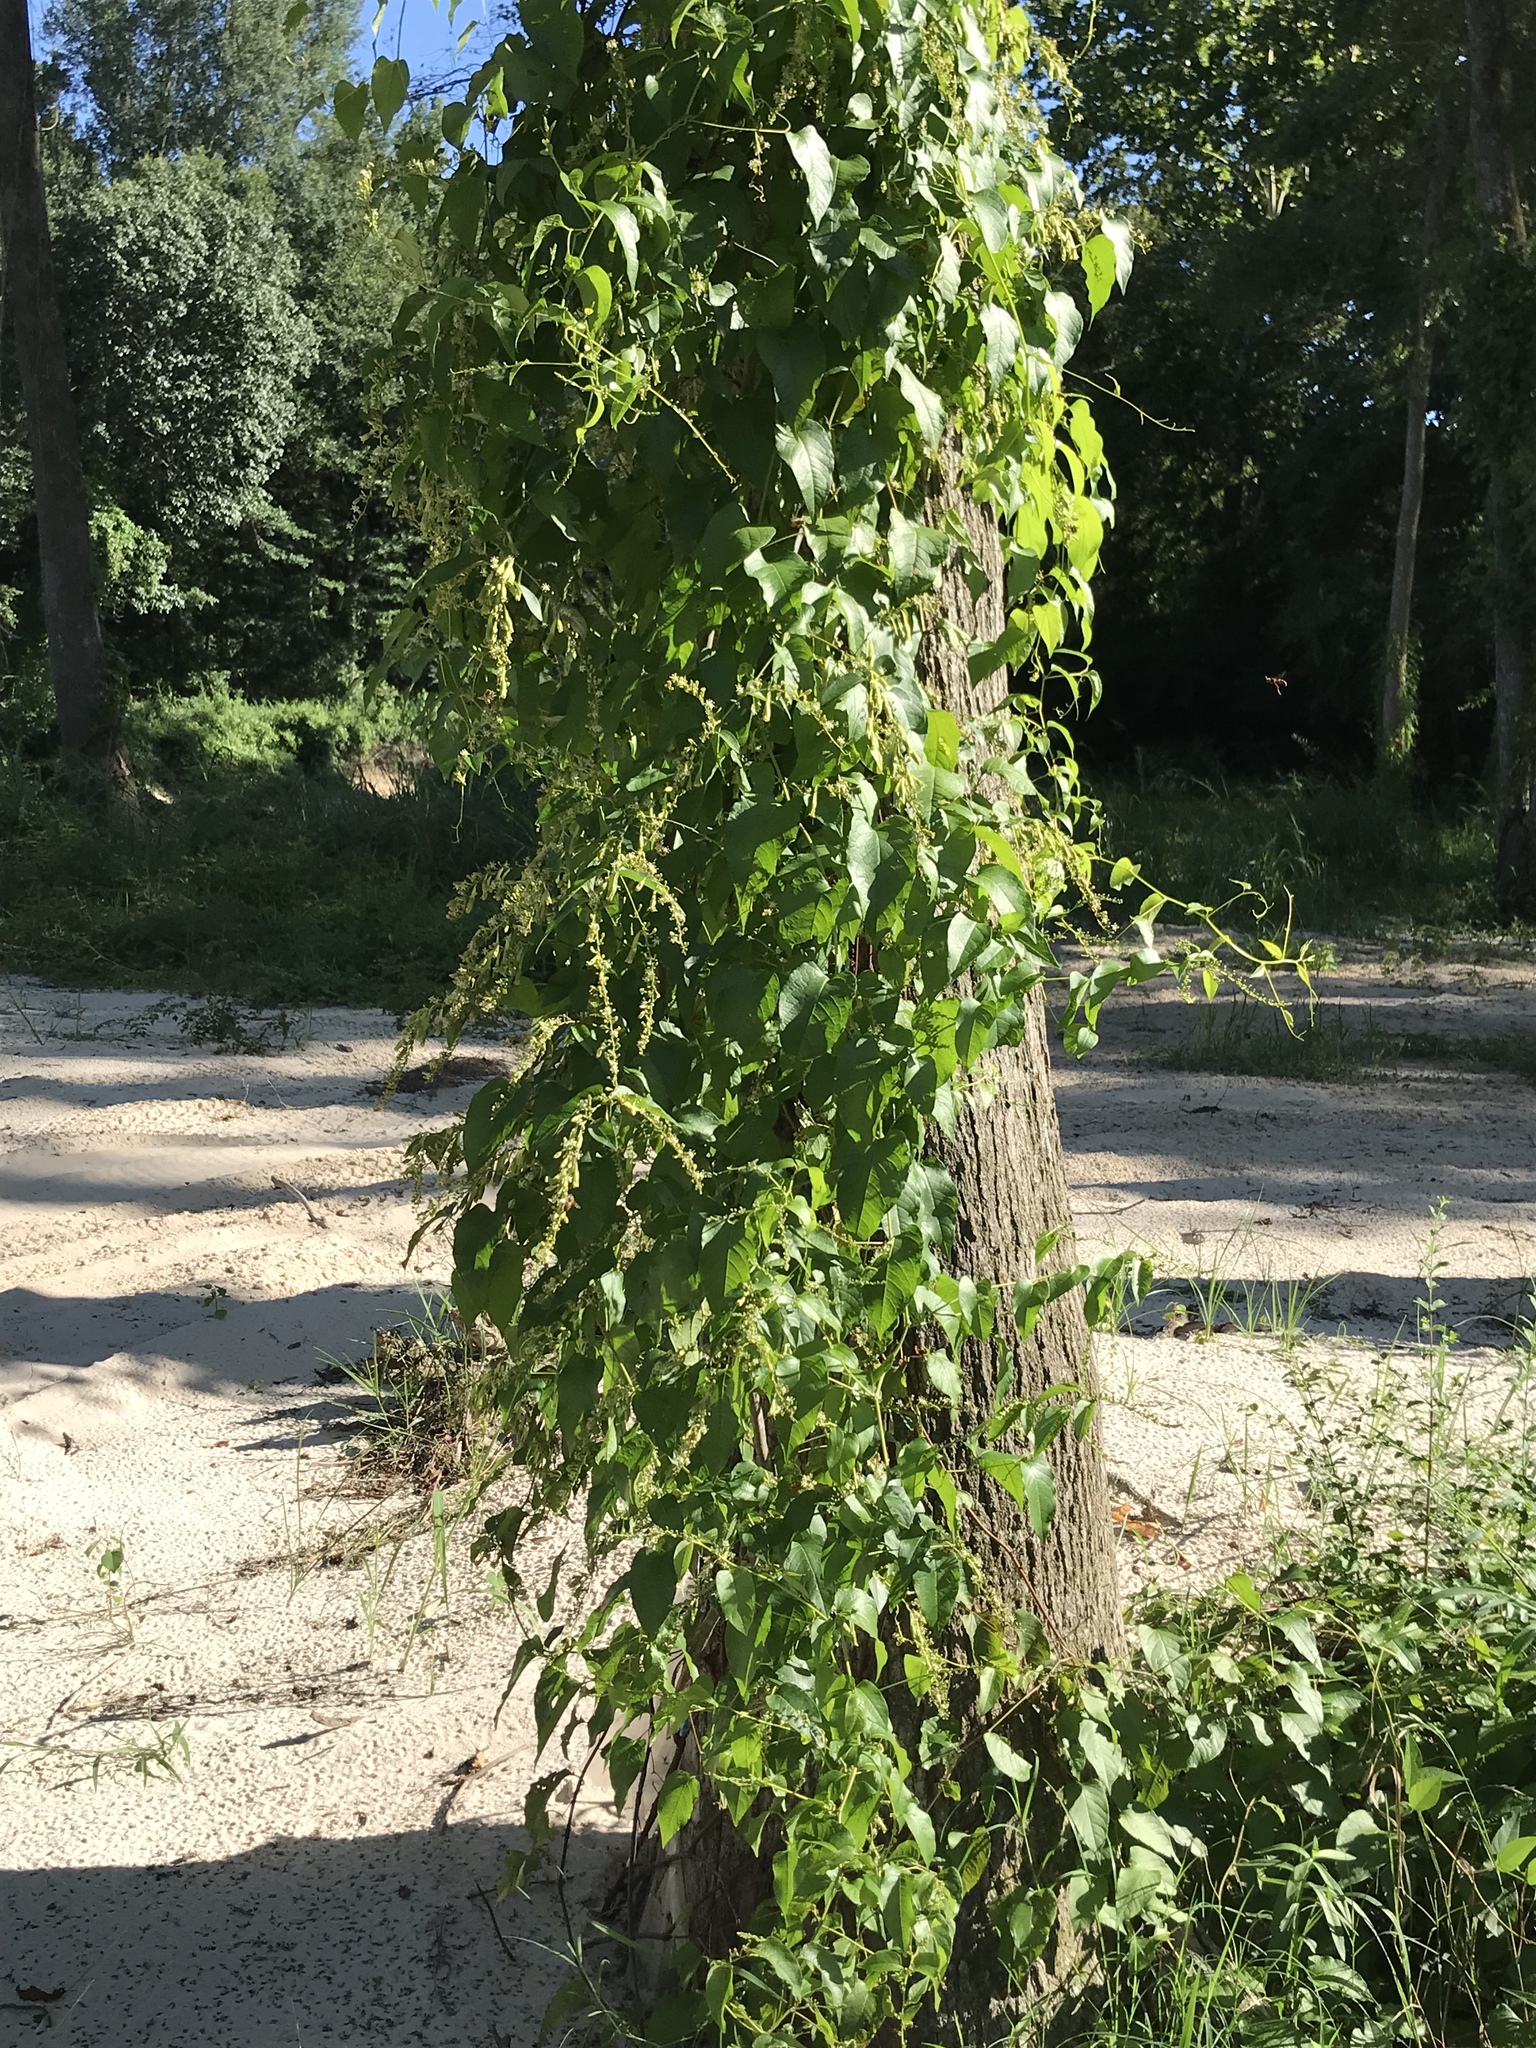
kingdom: Plantae
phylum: Tracheophyta
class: Magnoliopsida
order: Caryophyllales
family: Polygonaceae
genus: Brunnichia
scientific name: Brunnichia ovata
